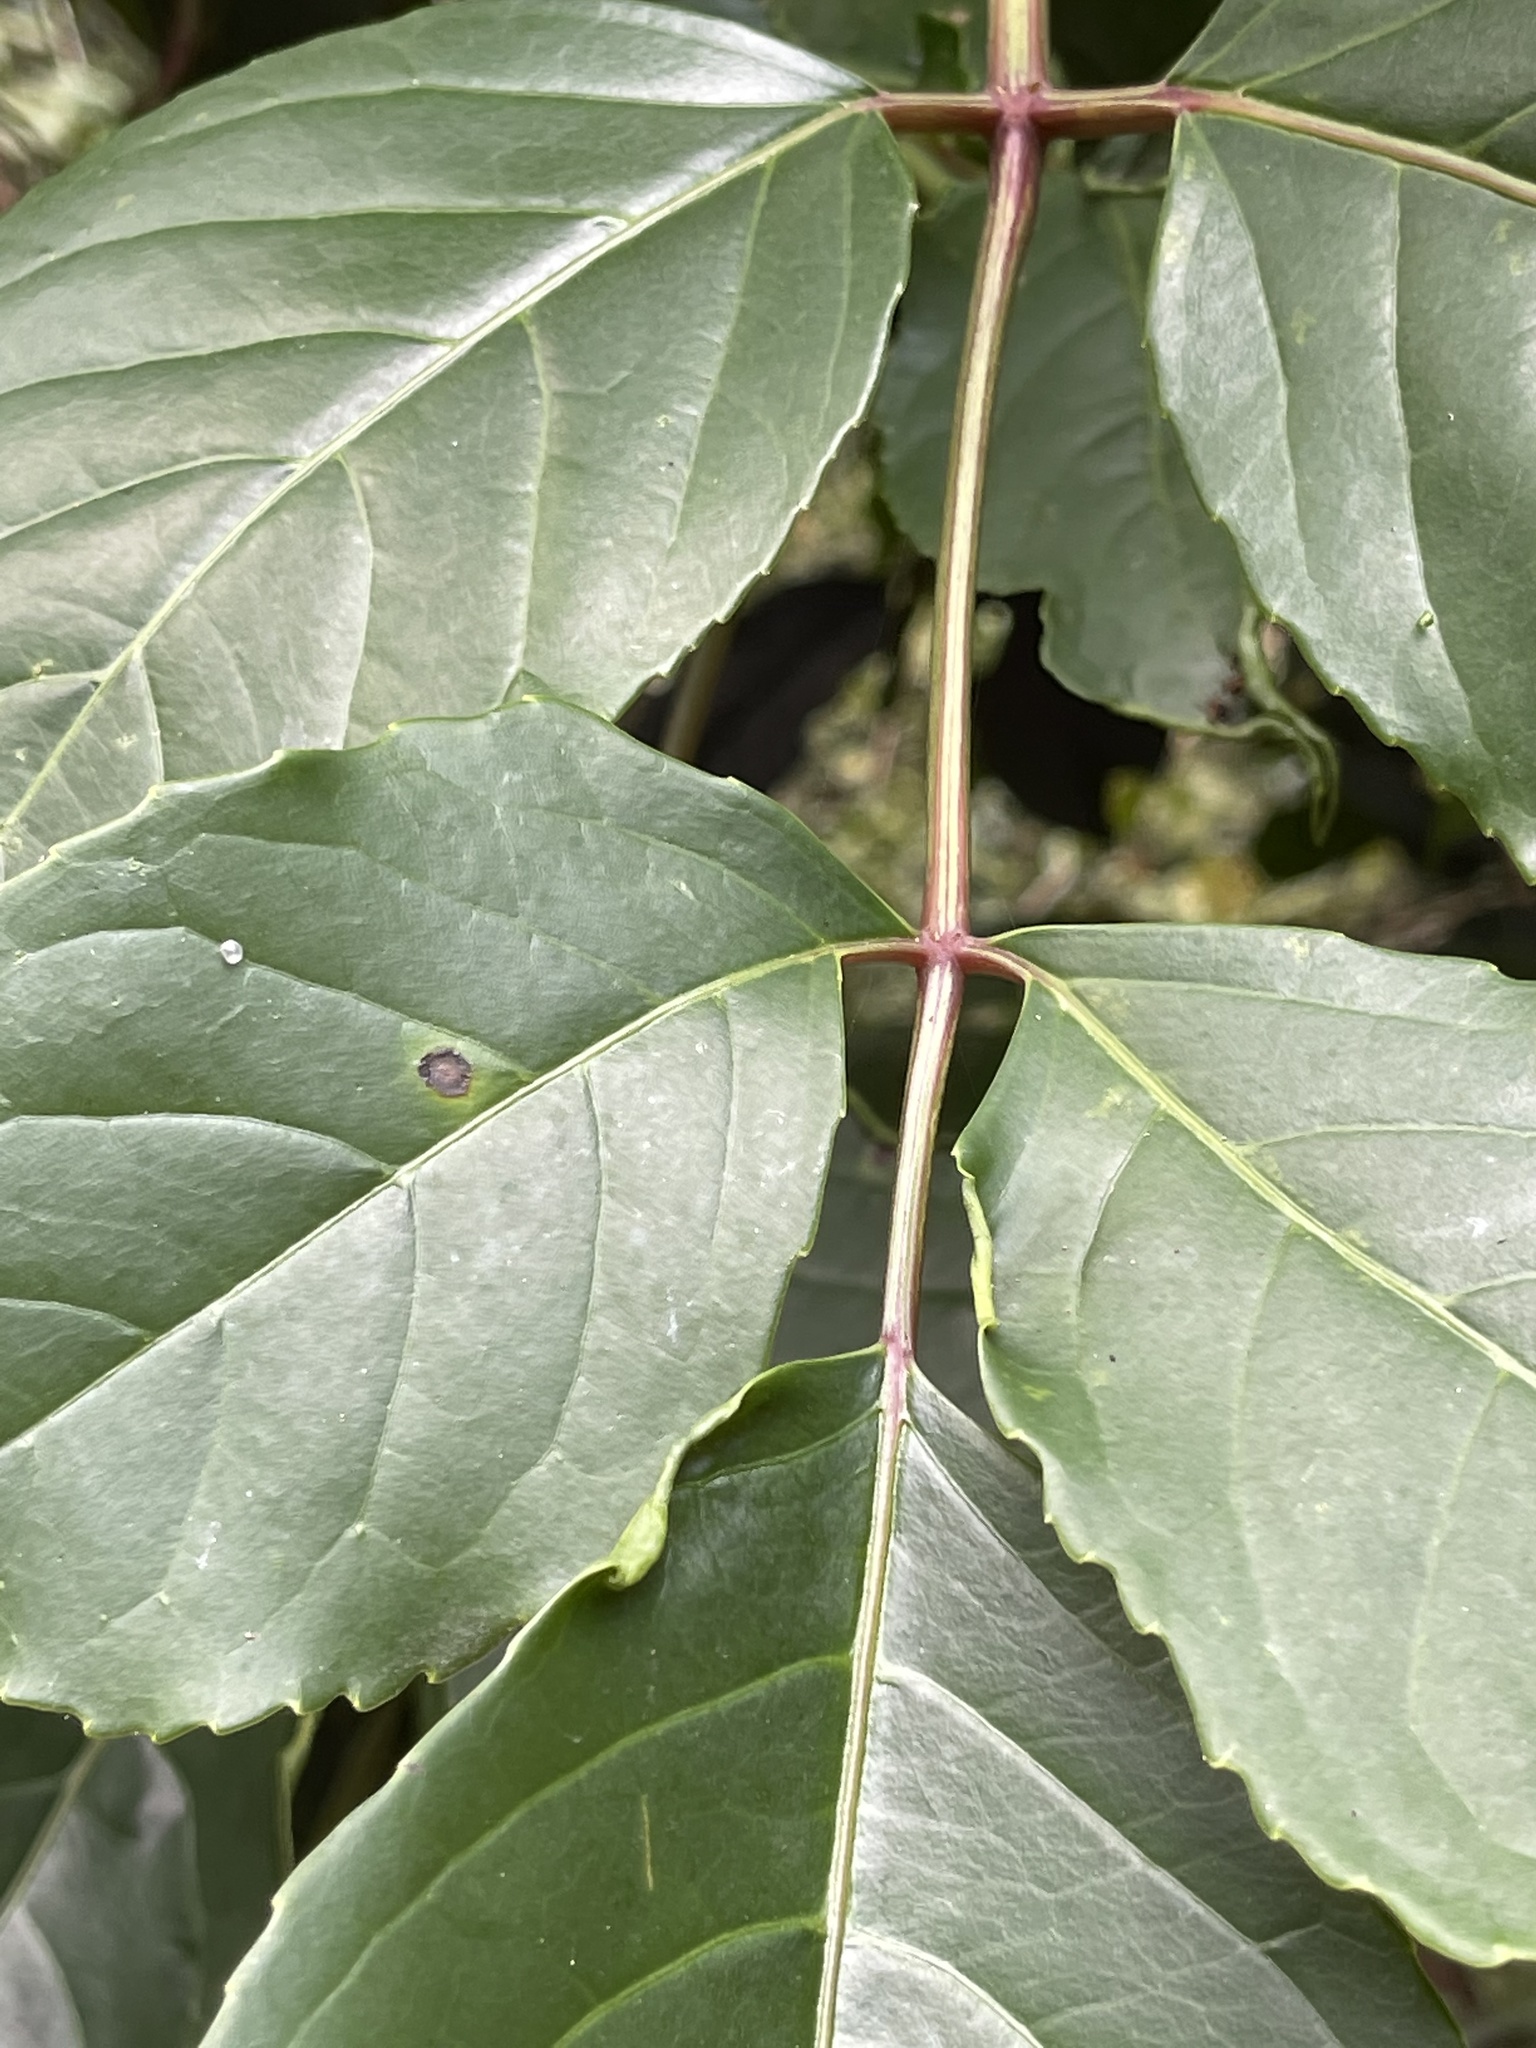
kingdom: Plantae
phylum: Tracheophyta
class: Magnoliopsida
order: Malpighiales
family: Phyllanthaceae
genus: Bischofia
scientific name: Bischofia javanica
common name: Javanese bishopwood
